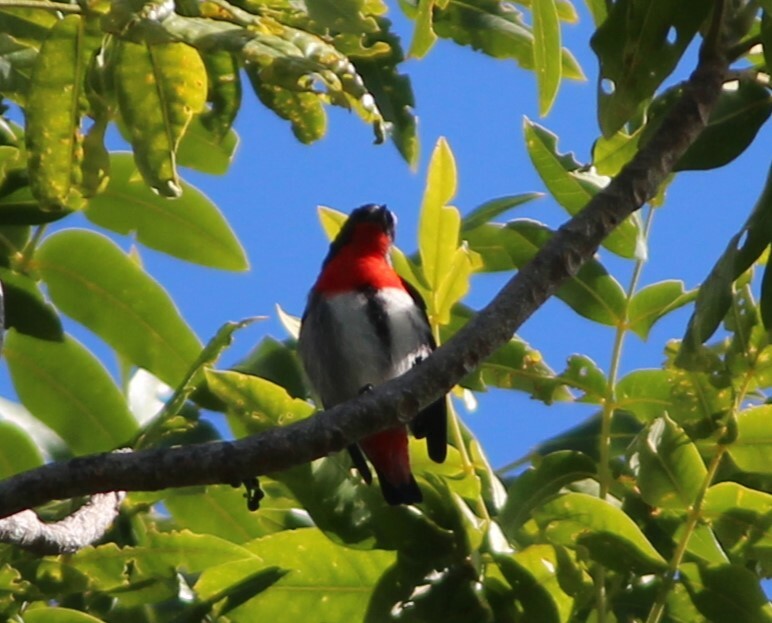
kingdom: Animalia
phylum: Chordata
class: Aves
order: Passeriformes
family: Dicaeidae
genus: Dicaeum
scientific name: Dicaeum hirundinaceum
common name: Mistletoebird
